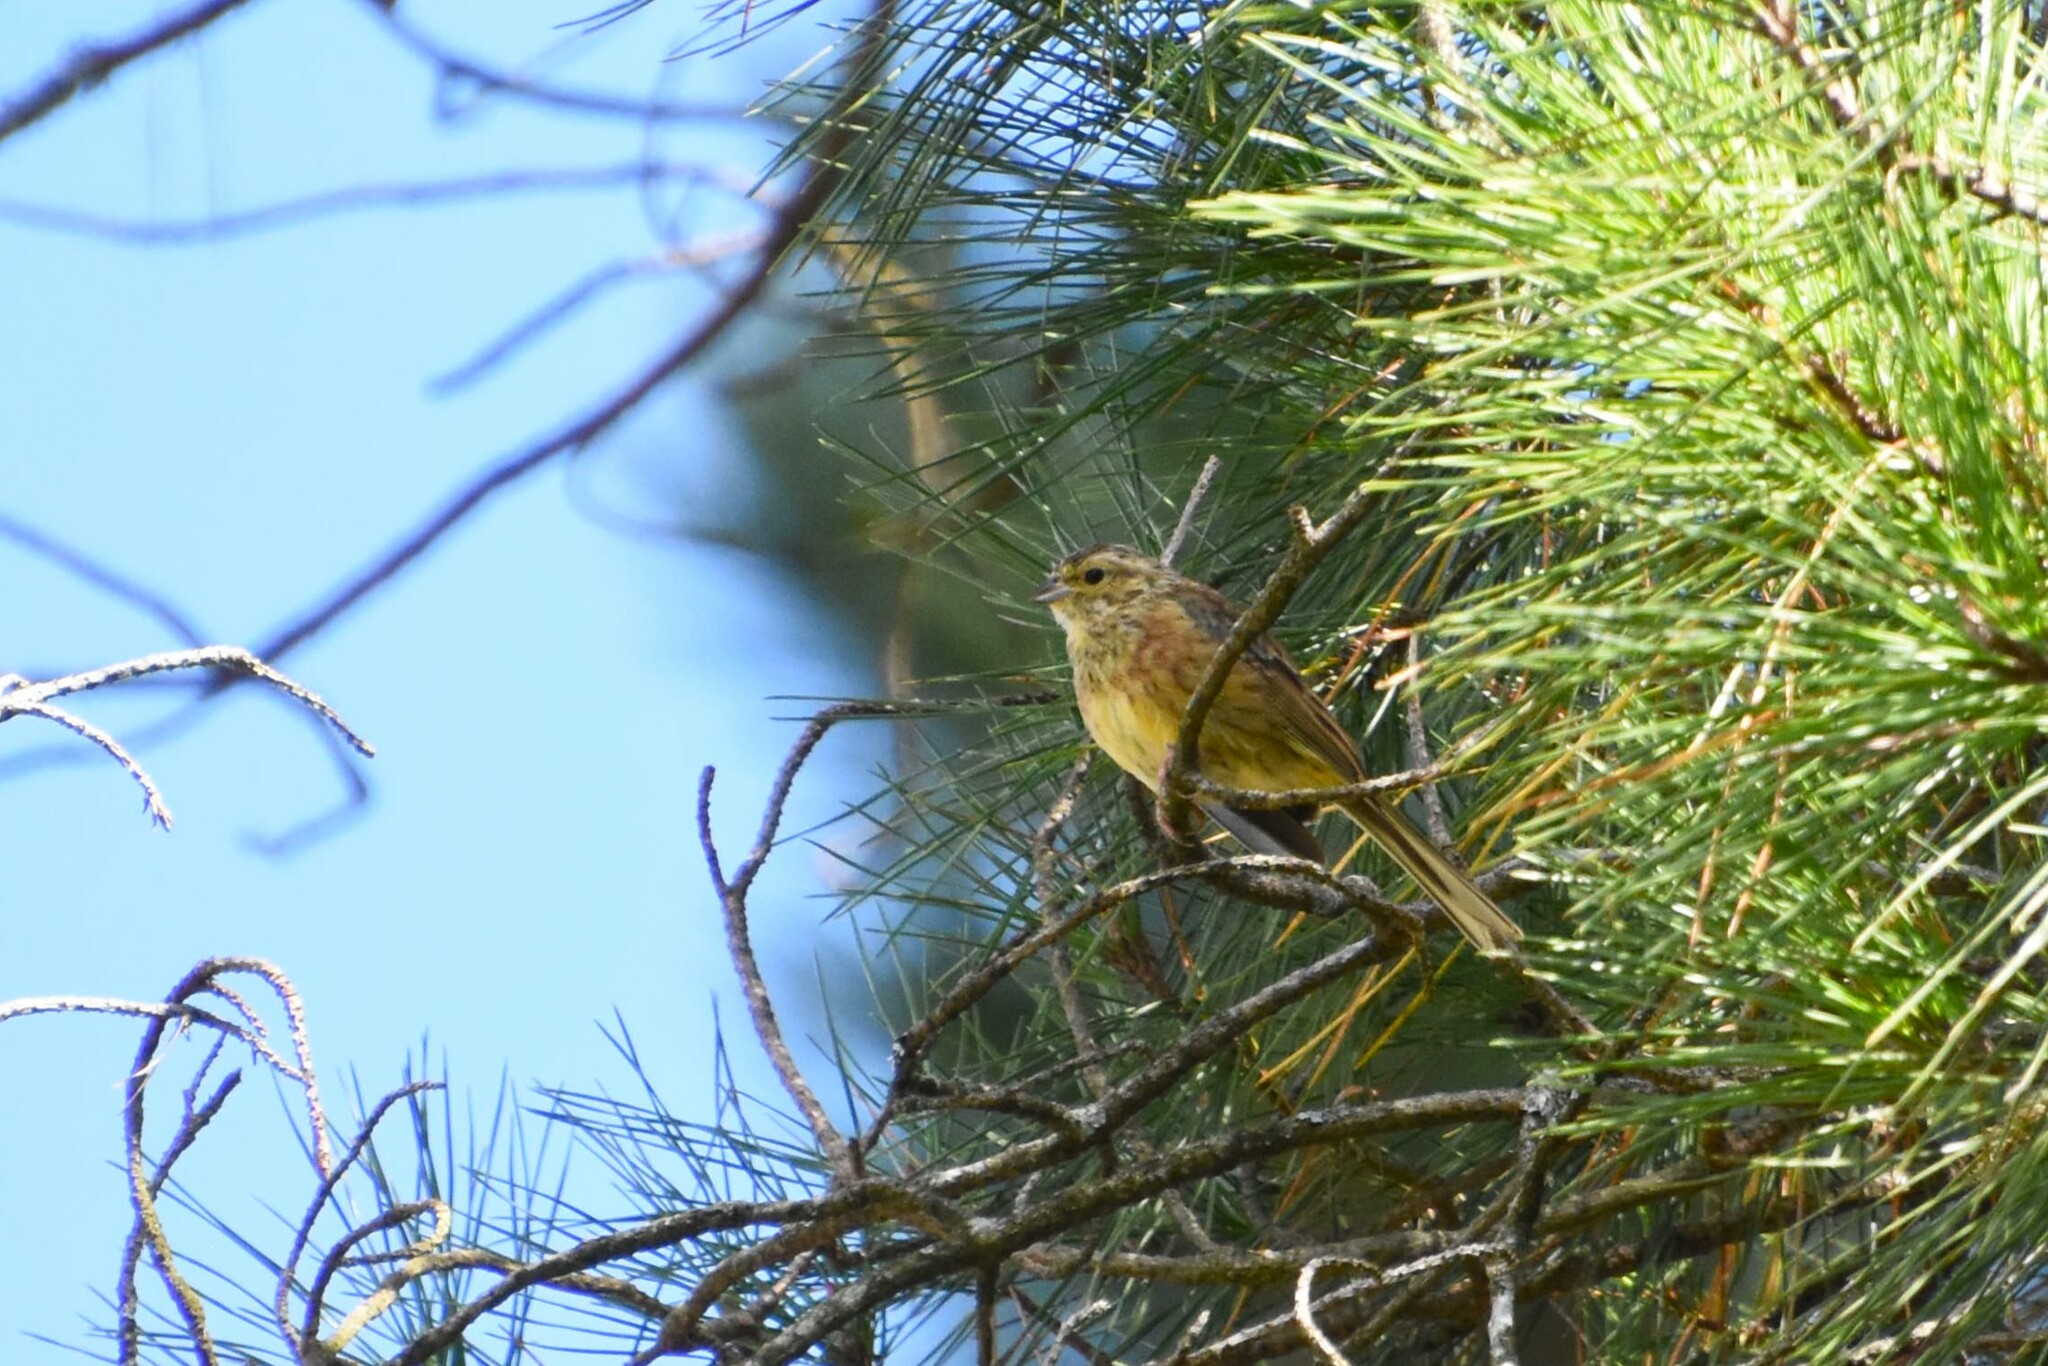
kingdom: Animalia
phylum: Chordata
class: Aves
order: Passeriformes
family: Emberizidae
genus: Emberiza
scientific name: Emberiza citrinella
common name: Yellowhammer
